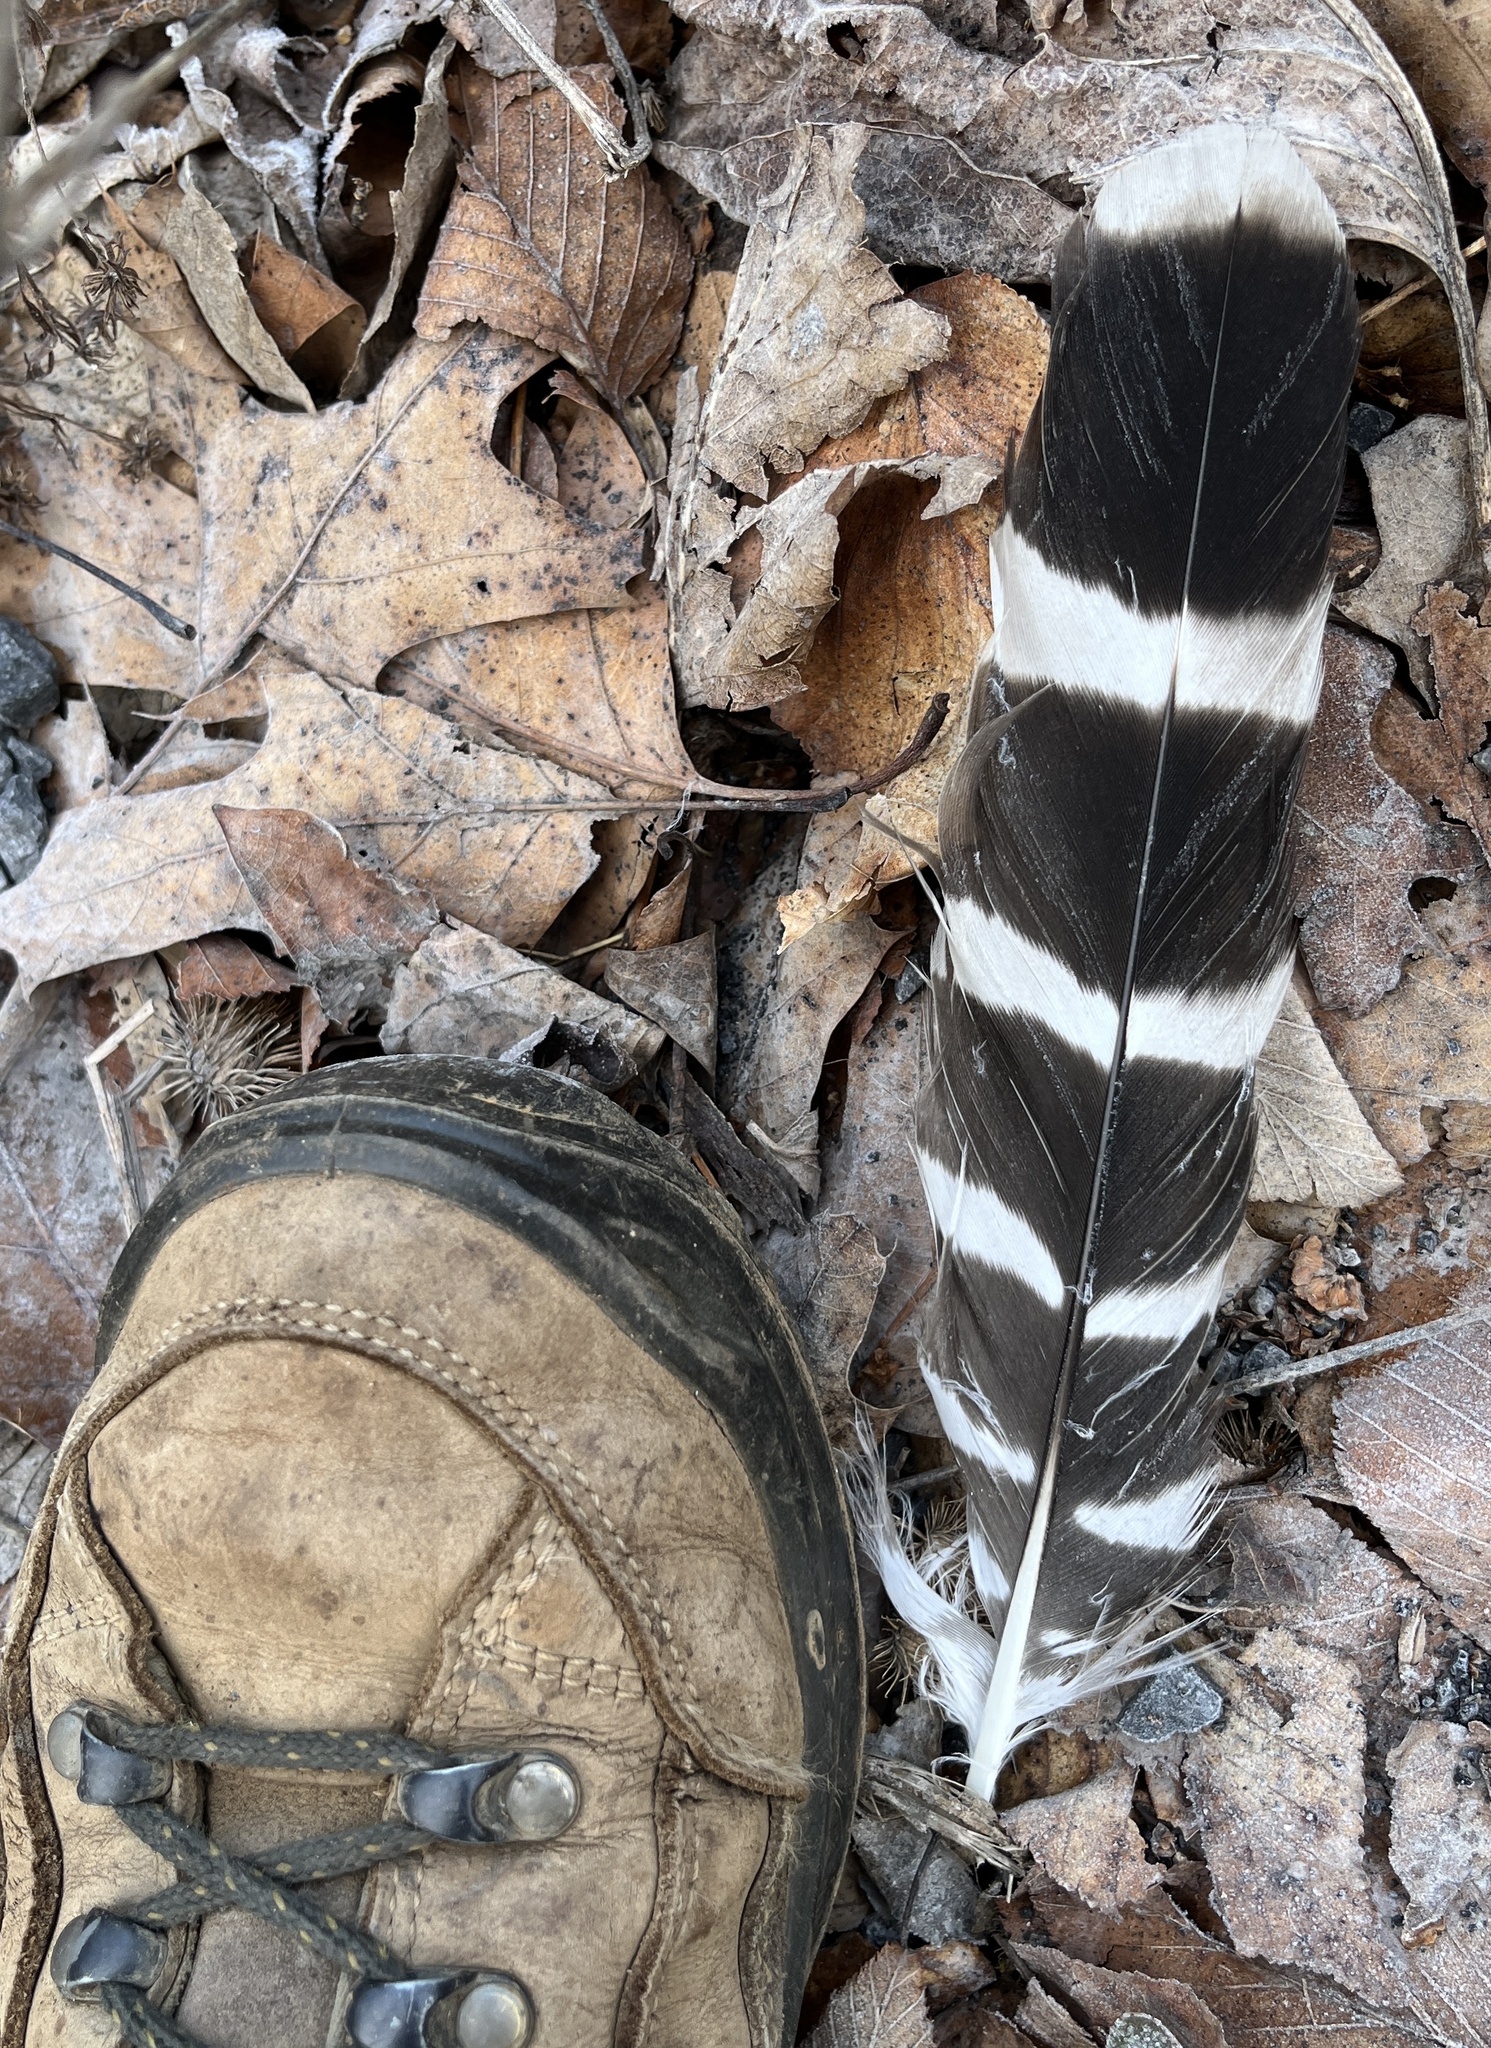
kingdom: Animalia
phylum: Chordata
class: Aves
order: Accipitriformes
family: Accipitridae
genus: Buteo
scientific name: Buteo lineatus
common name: Red-shouldered hawk
